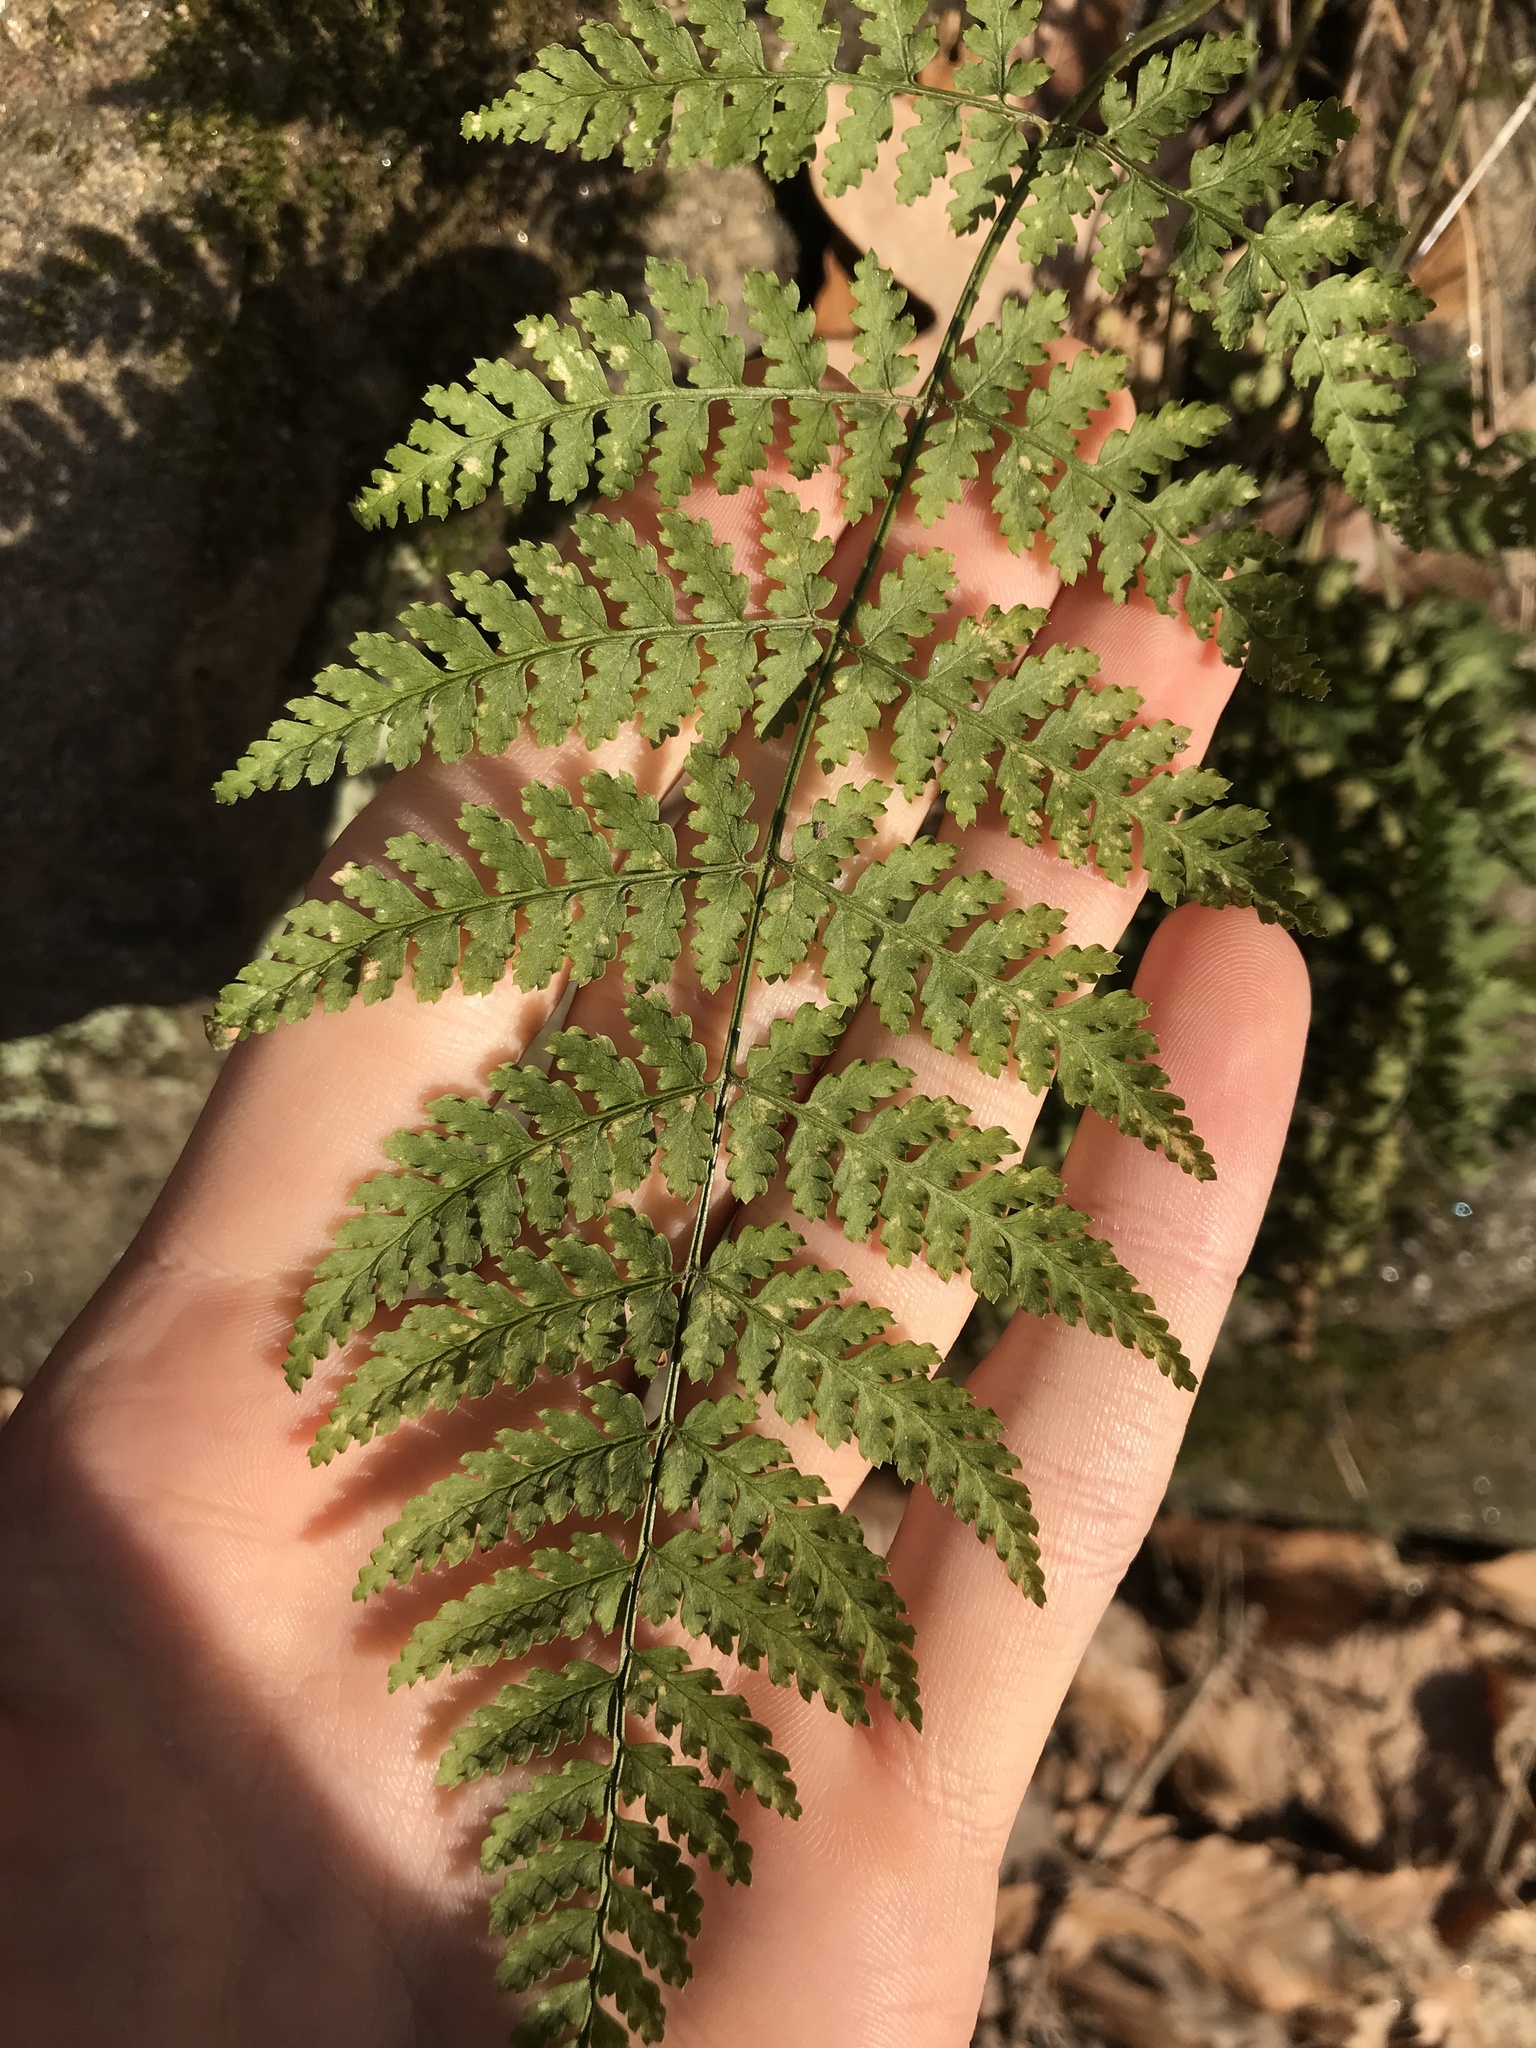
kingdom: Plantae
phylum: Tracheophyta
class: Polypodiopsida
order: Polypodiales
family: Dryopteridaceae
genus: Dryopteris
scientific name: Dryopteris intermedia
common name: Evergreen wood fern
